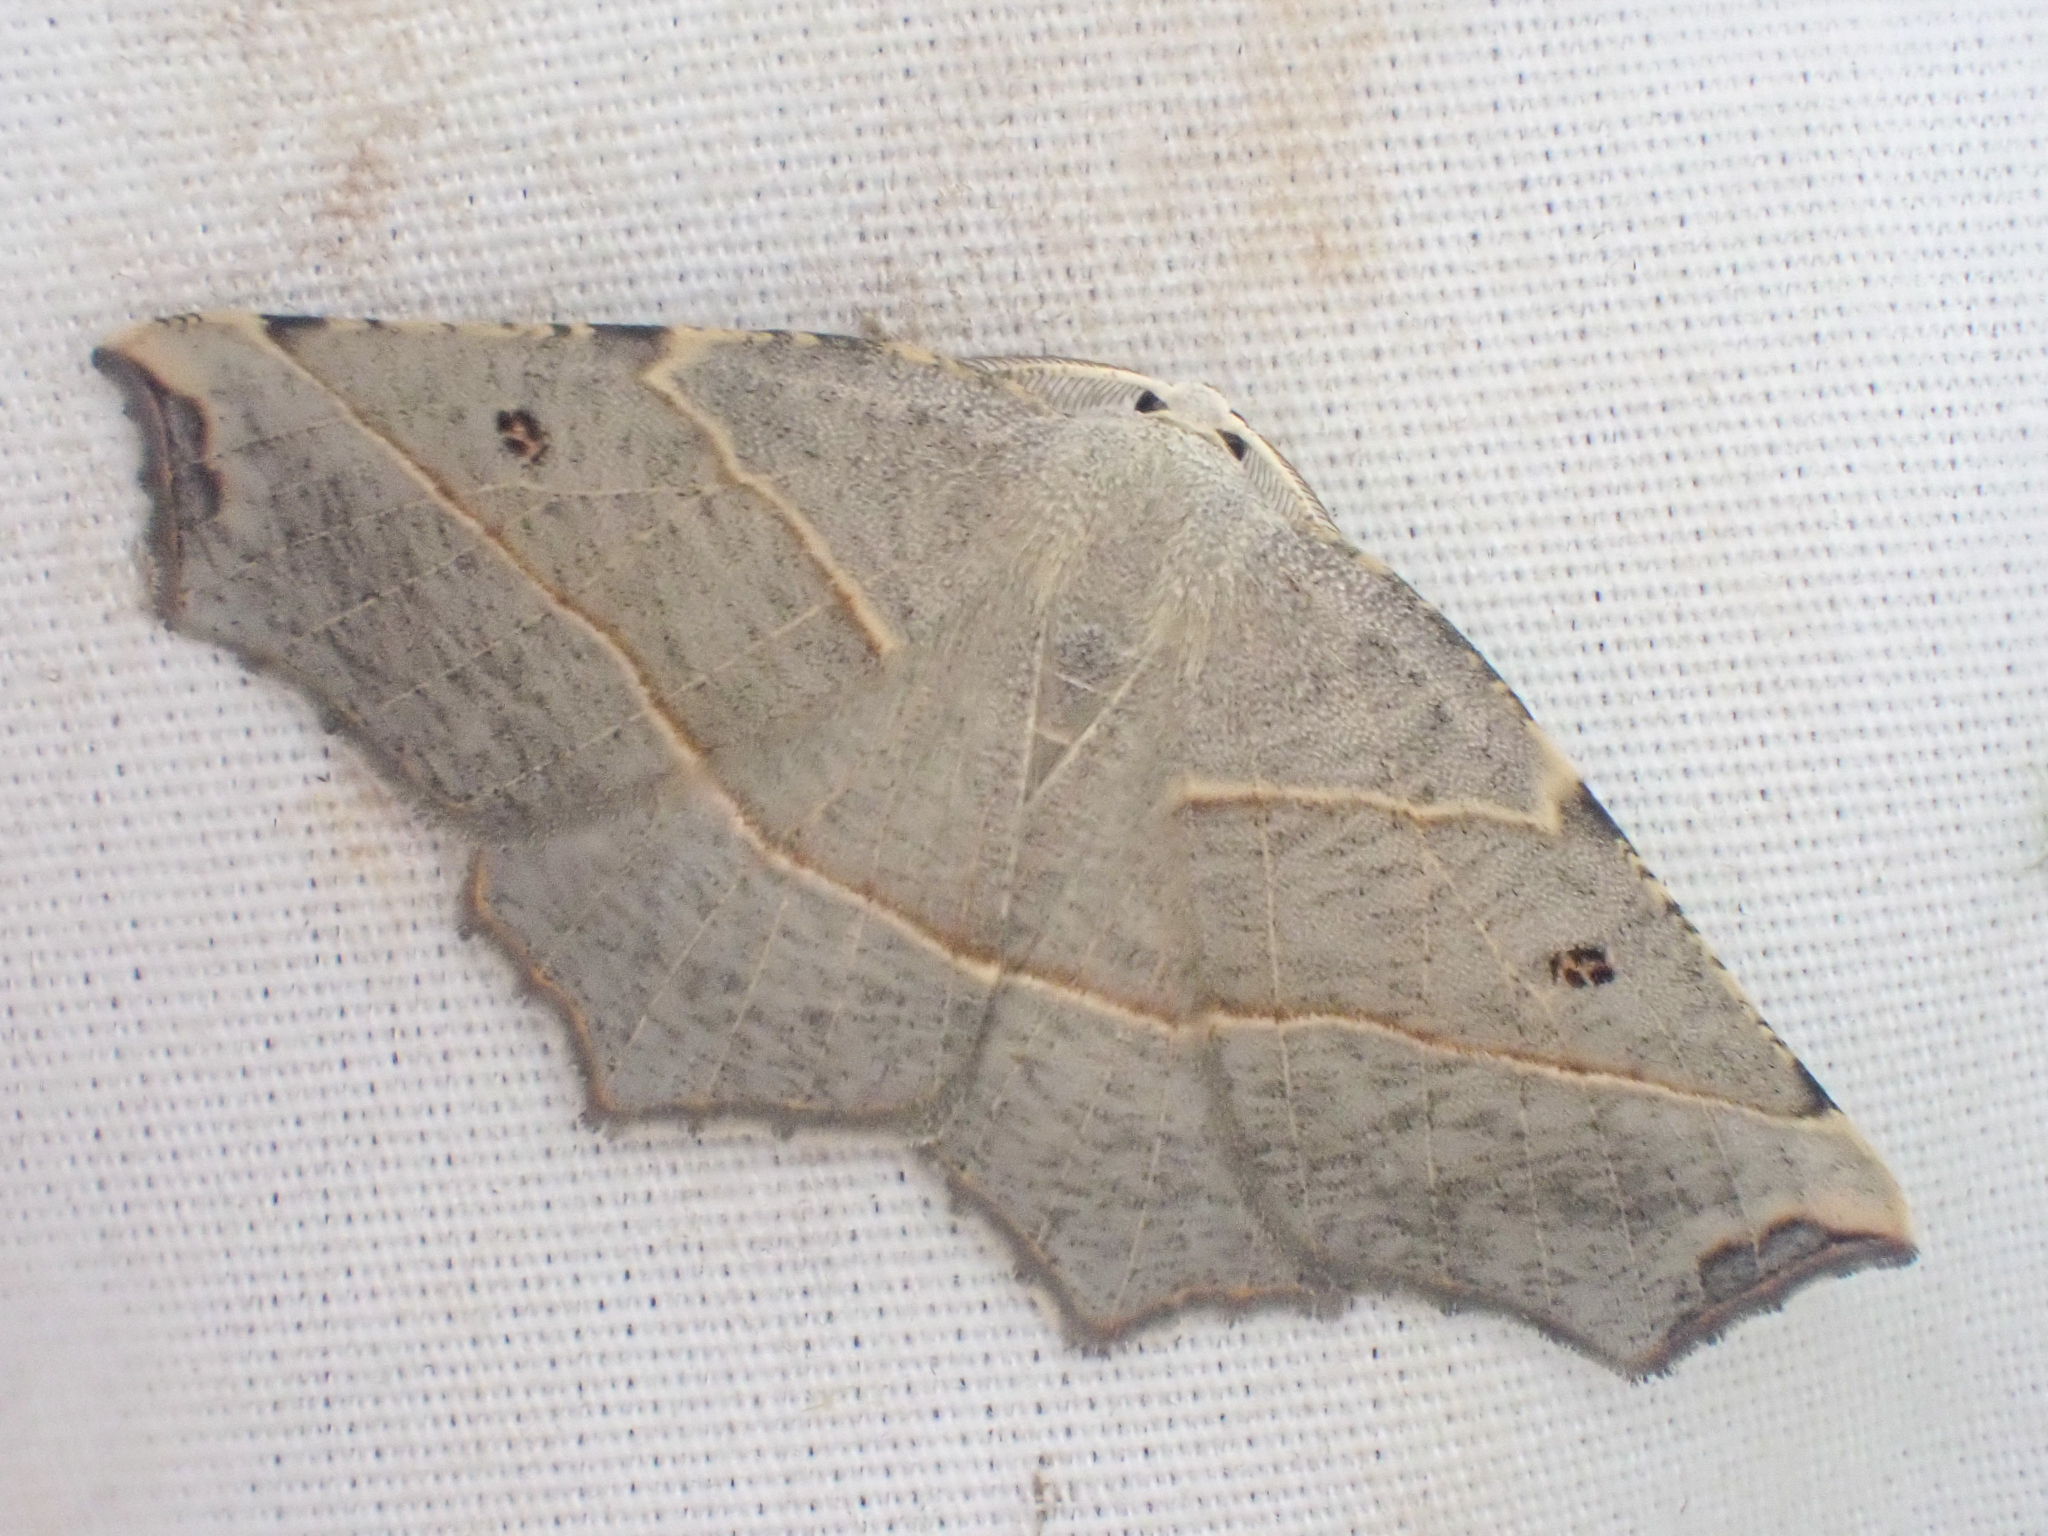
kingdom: Animalia
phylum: Arthropoda
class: Insecta
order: Lepidoptera
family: Geometridae
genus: Metanema
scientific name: Metanema inatomaria
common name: Pale metanema
